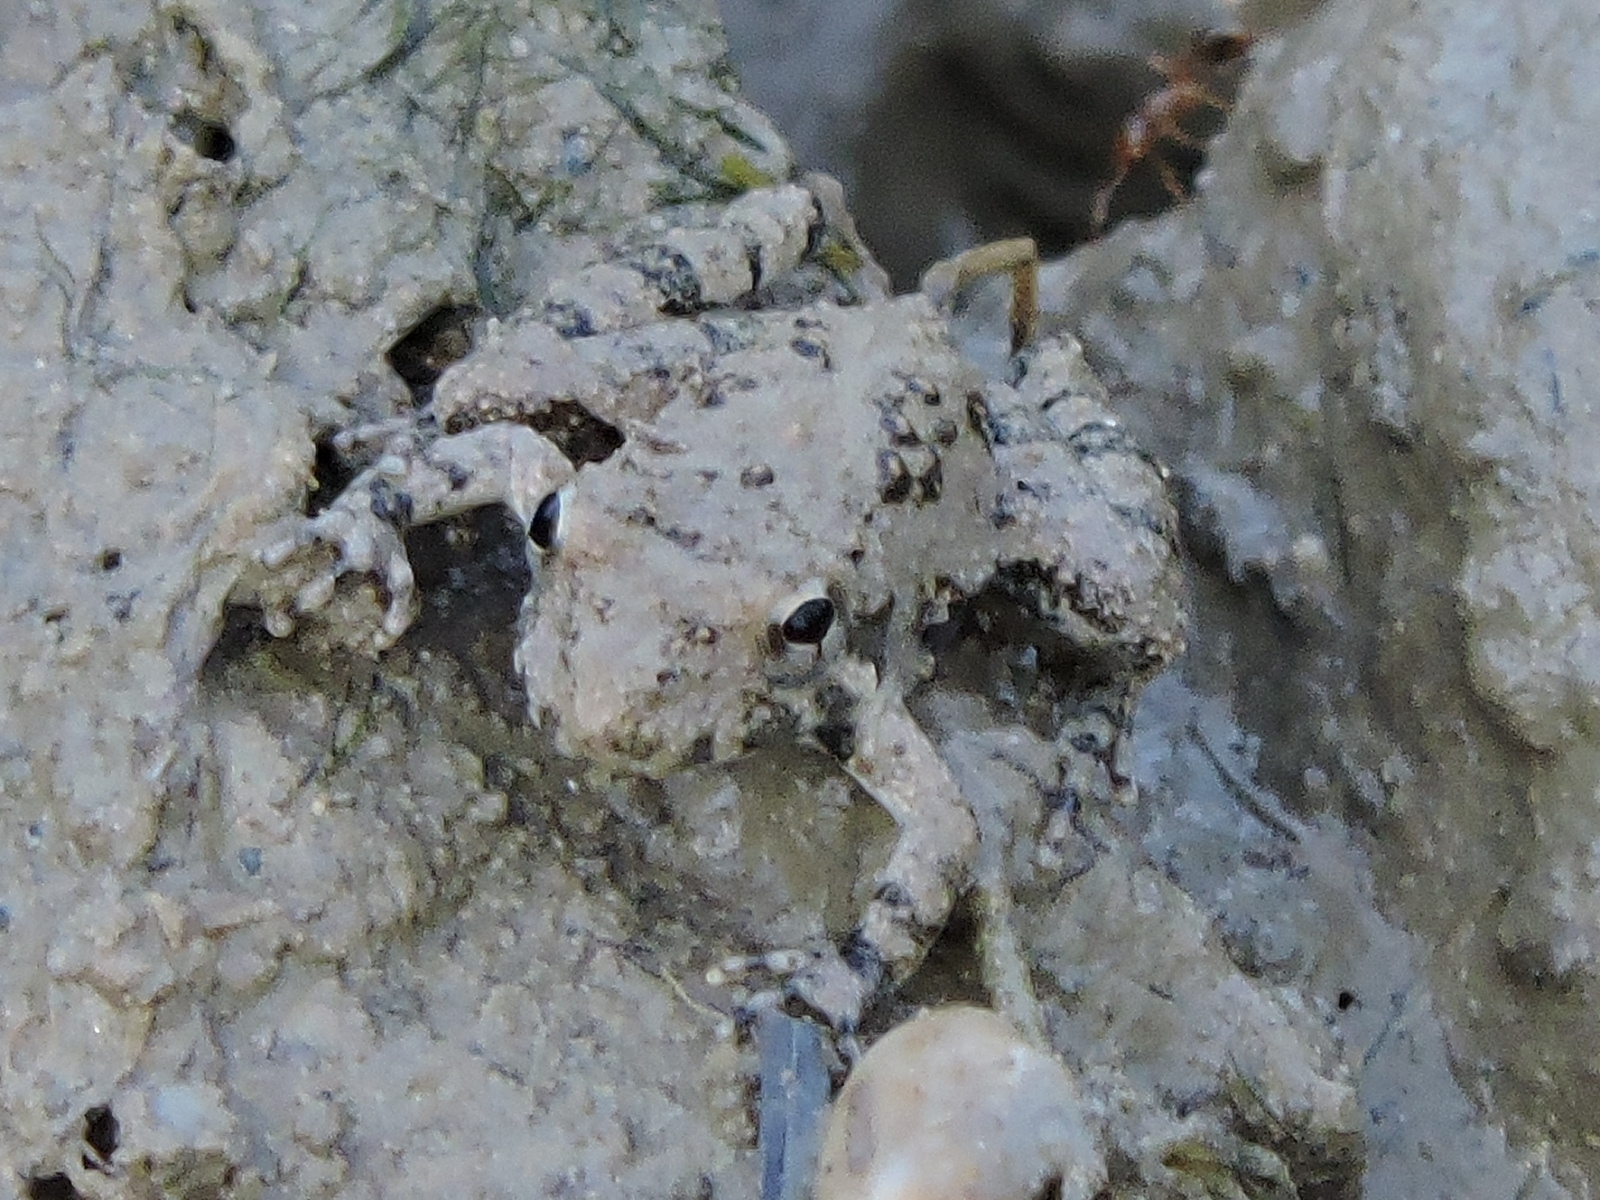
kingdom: Animalia
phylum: Chordata
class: Amphibia
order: Anura
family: Hylidae
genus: Acris
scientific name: Acris blanchardi
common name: Blanchard's cricket frog
